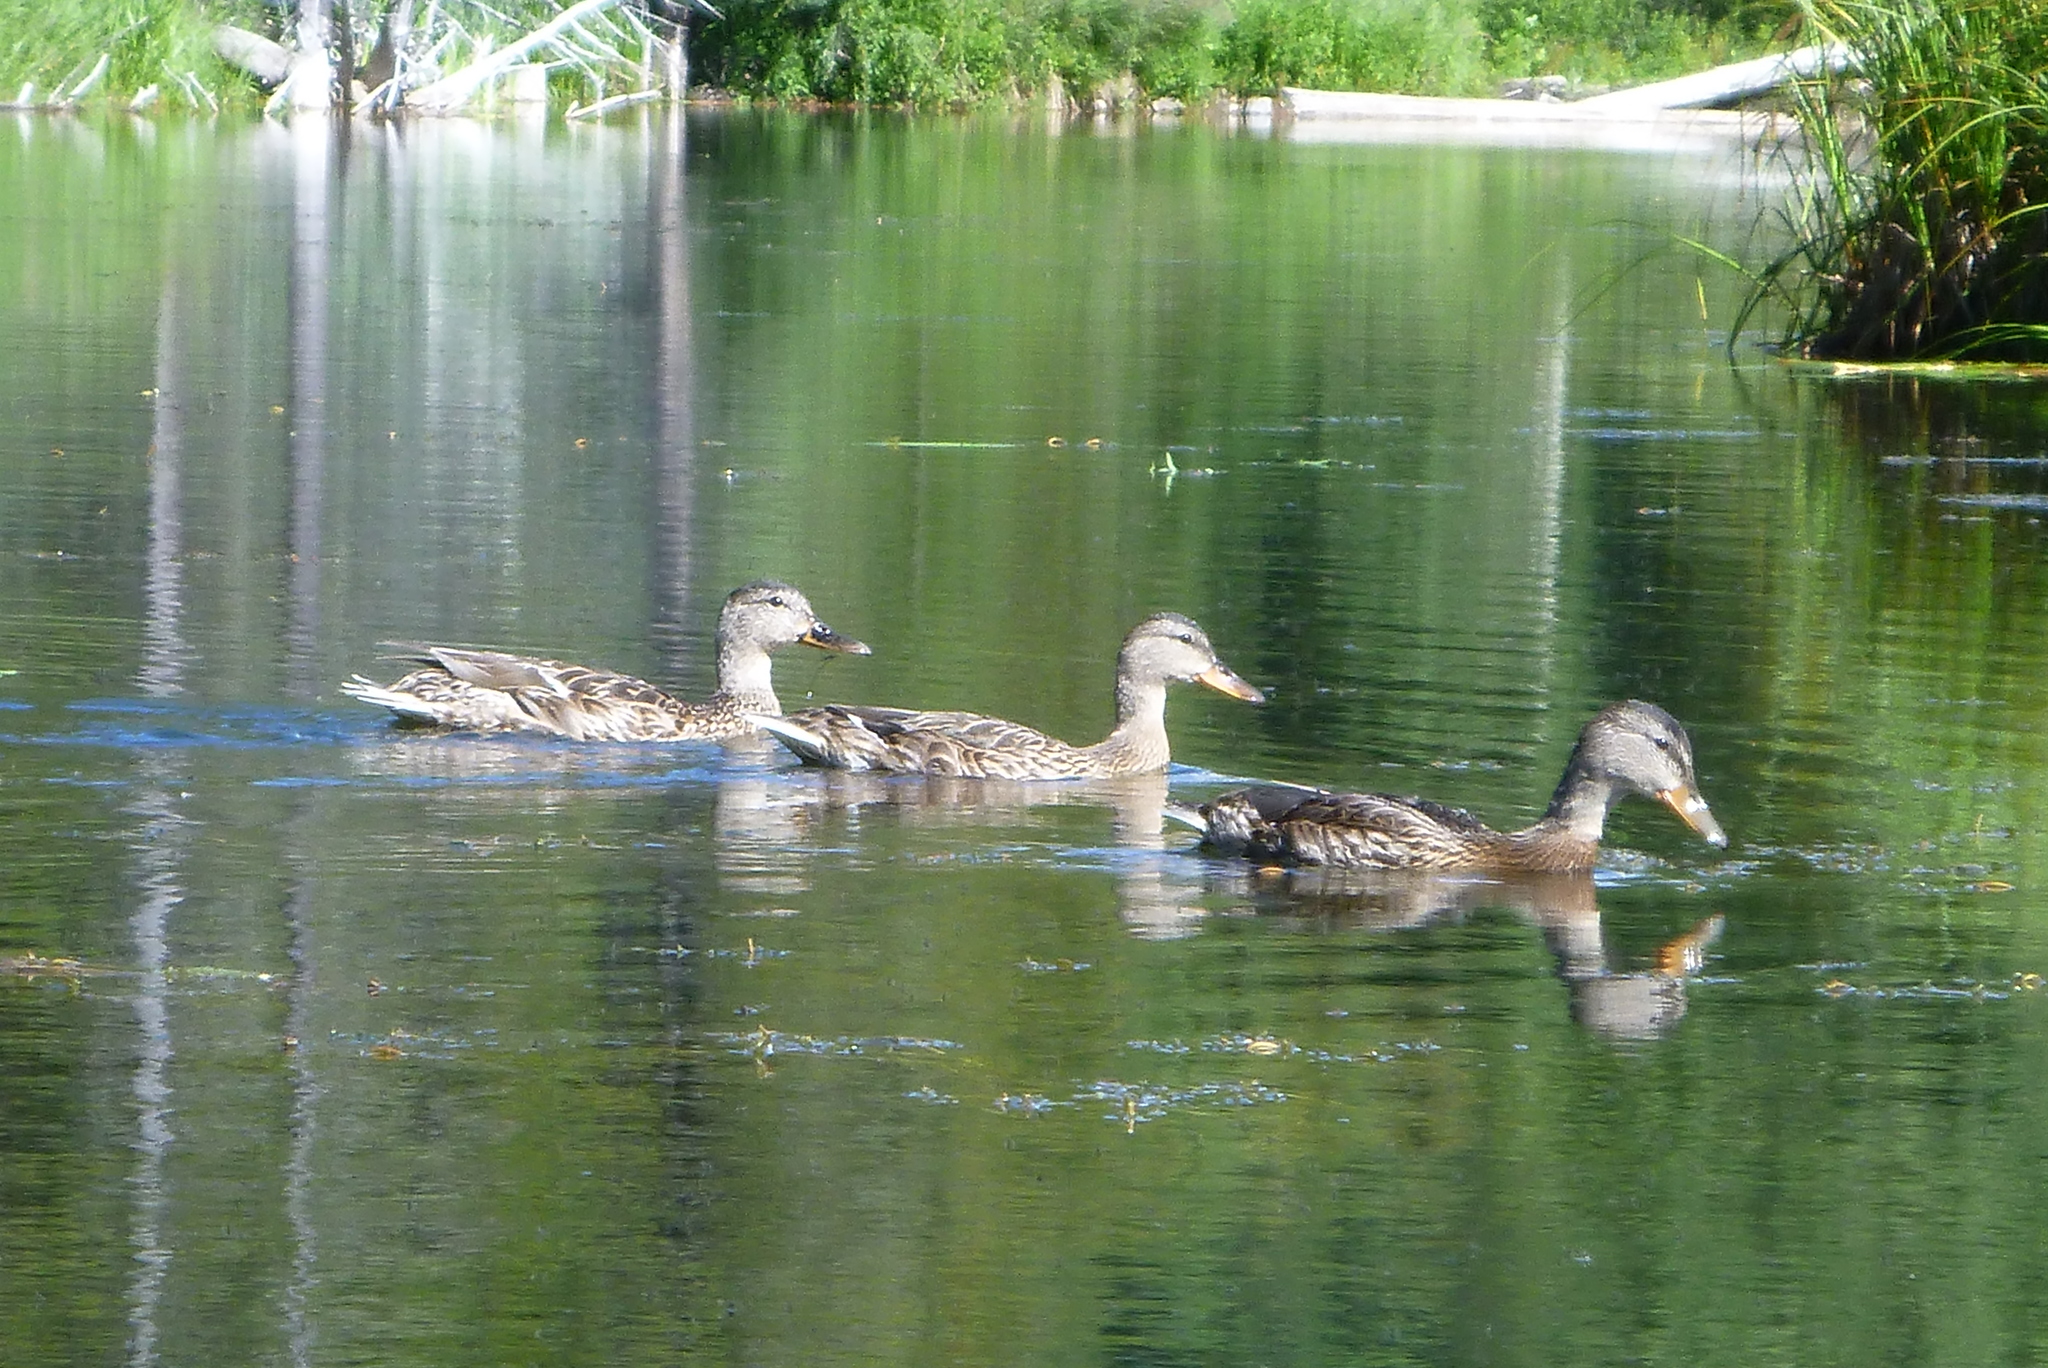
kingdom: Animalia
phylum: Chordata
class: Aves
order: Anseriformes
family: Anatidae
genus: Anas
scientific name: Anas platyrhynchos
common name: Mallard
